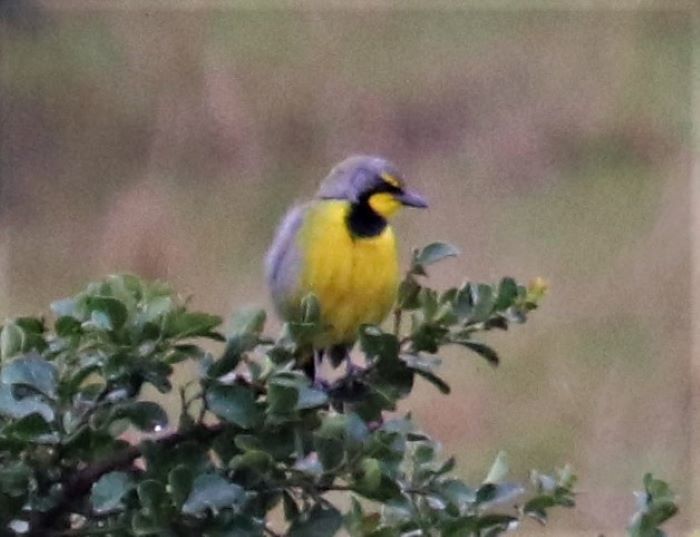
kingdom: Animalia
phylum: Chordata
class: Aves
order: Passeriformes
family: Malaconotidae
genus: Telophorus
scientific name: Telophorus zeylonus
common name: Bokmakierie
